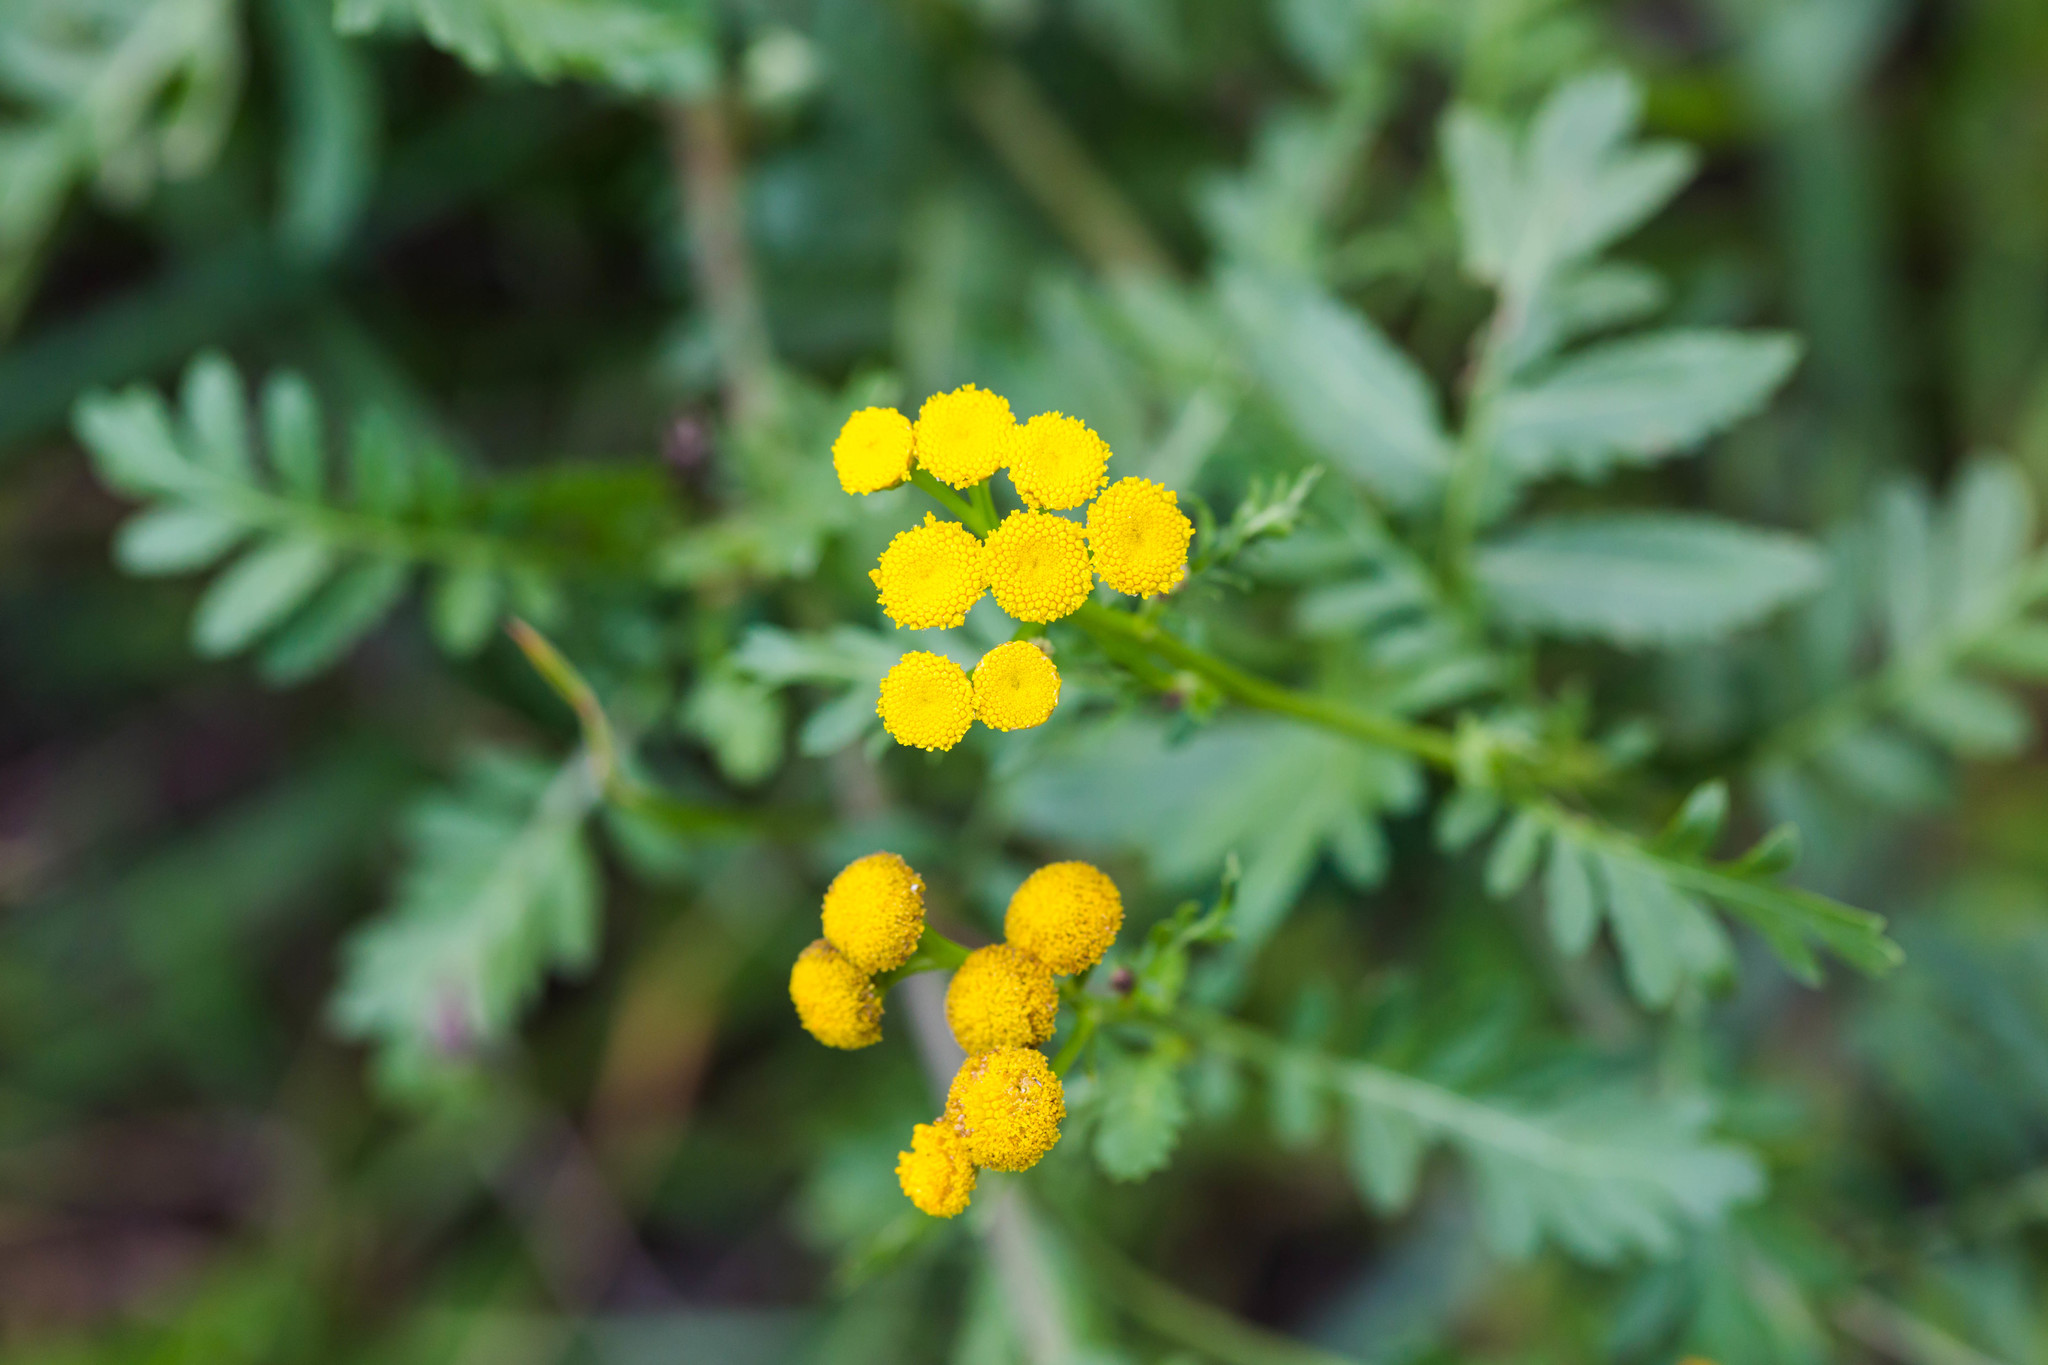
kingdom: Plantae
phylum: Tracheophyta
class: Magnoliopsida
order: Asterales
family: Asteraceae
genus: Tanacetum
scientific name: Tanacetum vulgare
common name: Common tansy
